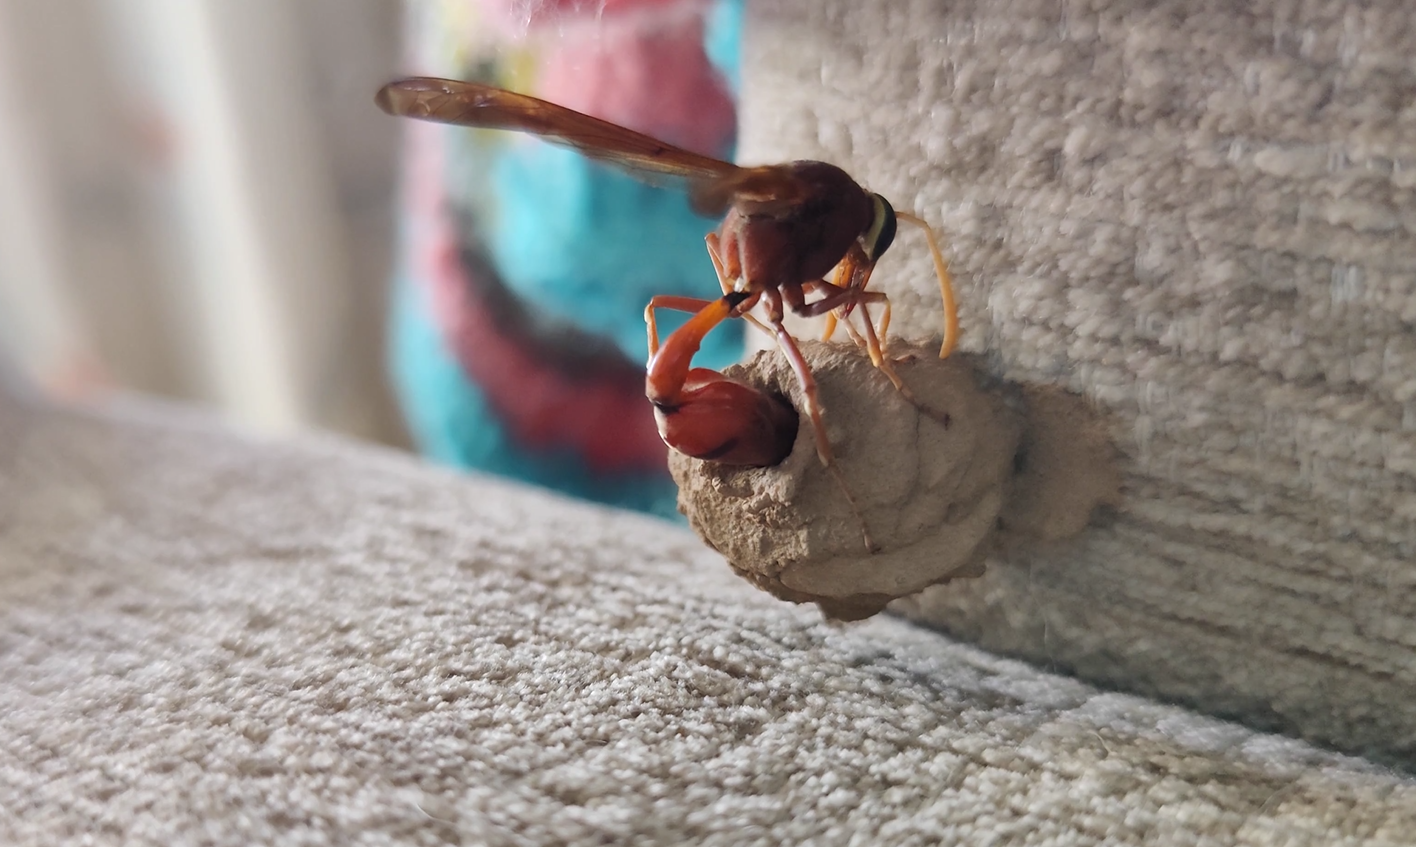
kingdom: Animalia
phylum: Arthropoda
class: Insecta
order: Hymenoptera
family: Eumenidae
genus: Delta
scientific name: Delta conoideum
